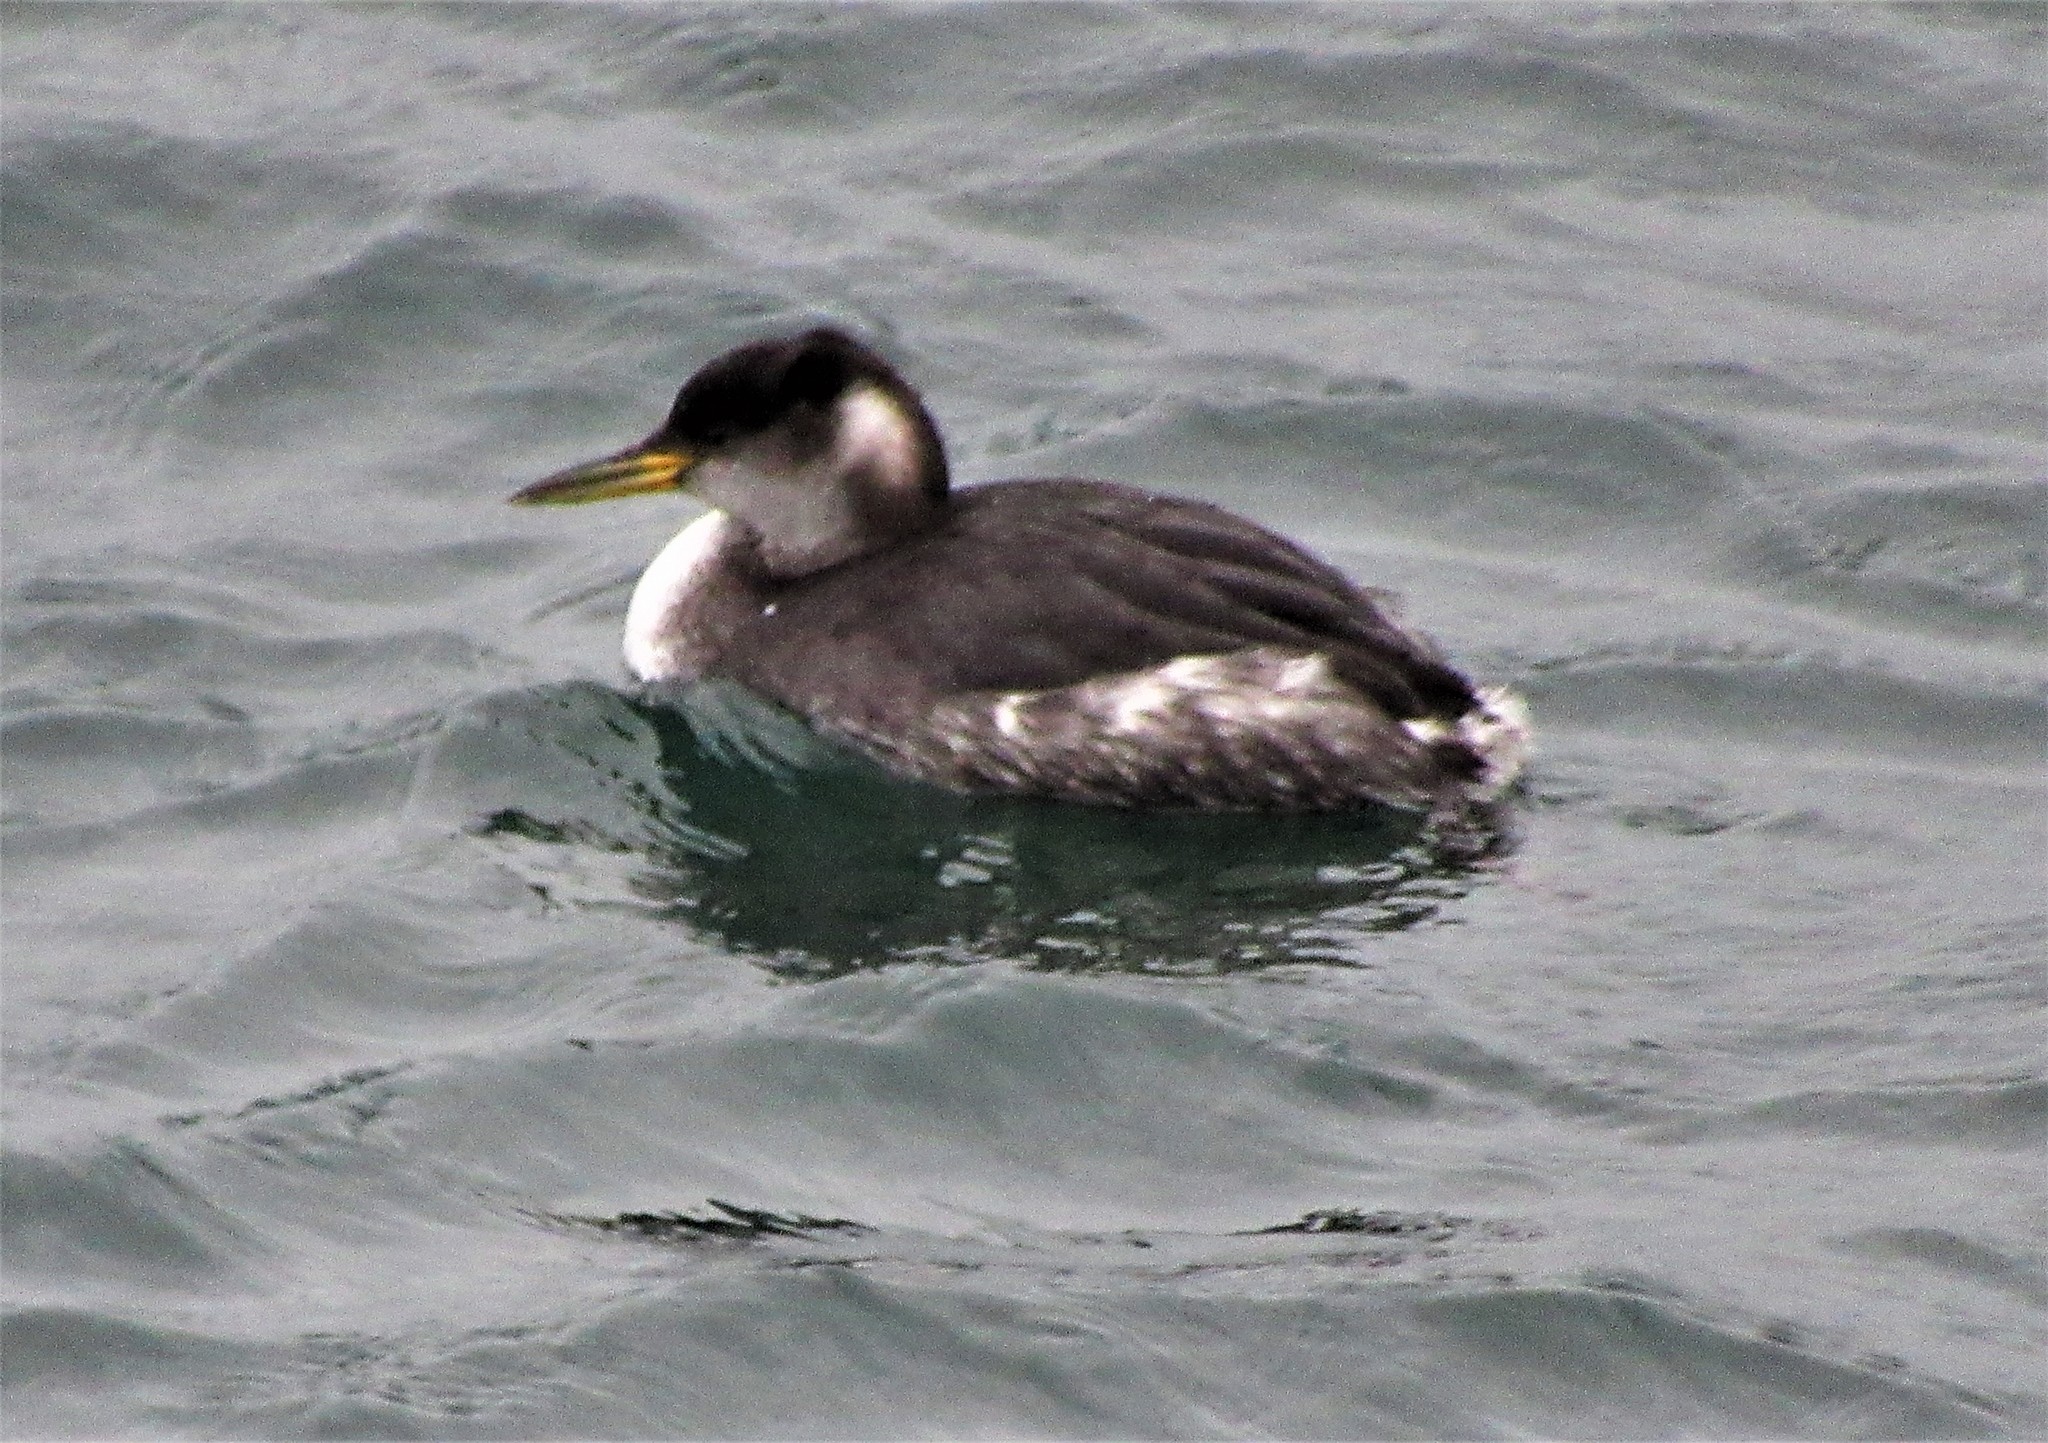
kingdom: Animalia
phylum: Chordata
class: Aves
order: Podicipediformes
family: Podicipedidae
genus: Podiceps
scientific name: Podiceps grisegena
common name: Red-necked grebe
